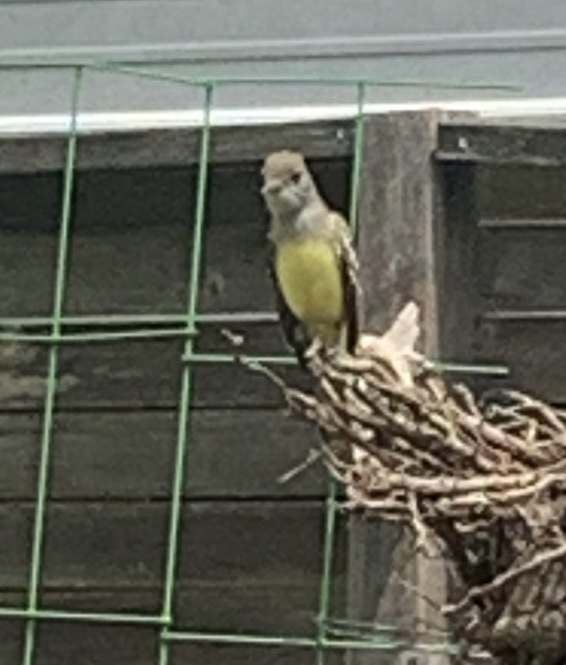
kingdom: Animalia
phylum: Chordata
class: Aves
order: Passeriformes
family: Tyrannidae
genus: Myiarchus
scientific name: Myiarchus crinitus
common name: Great crested flycatcher
